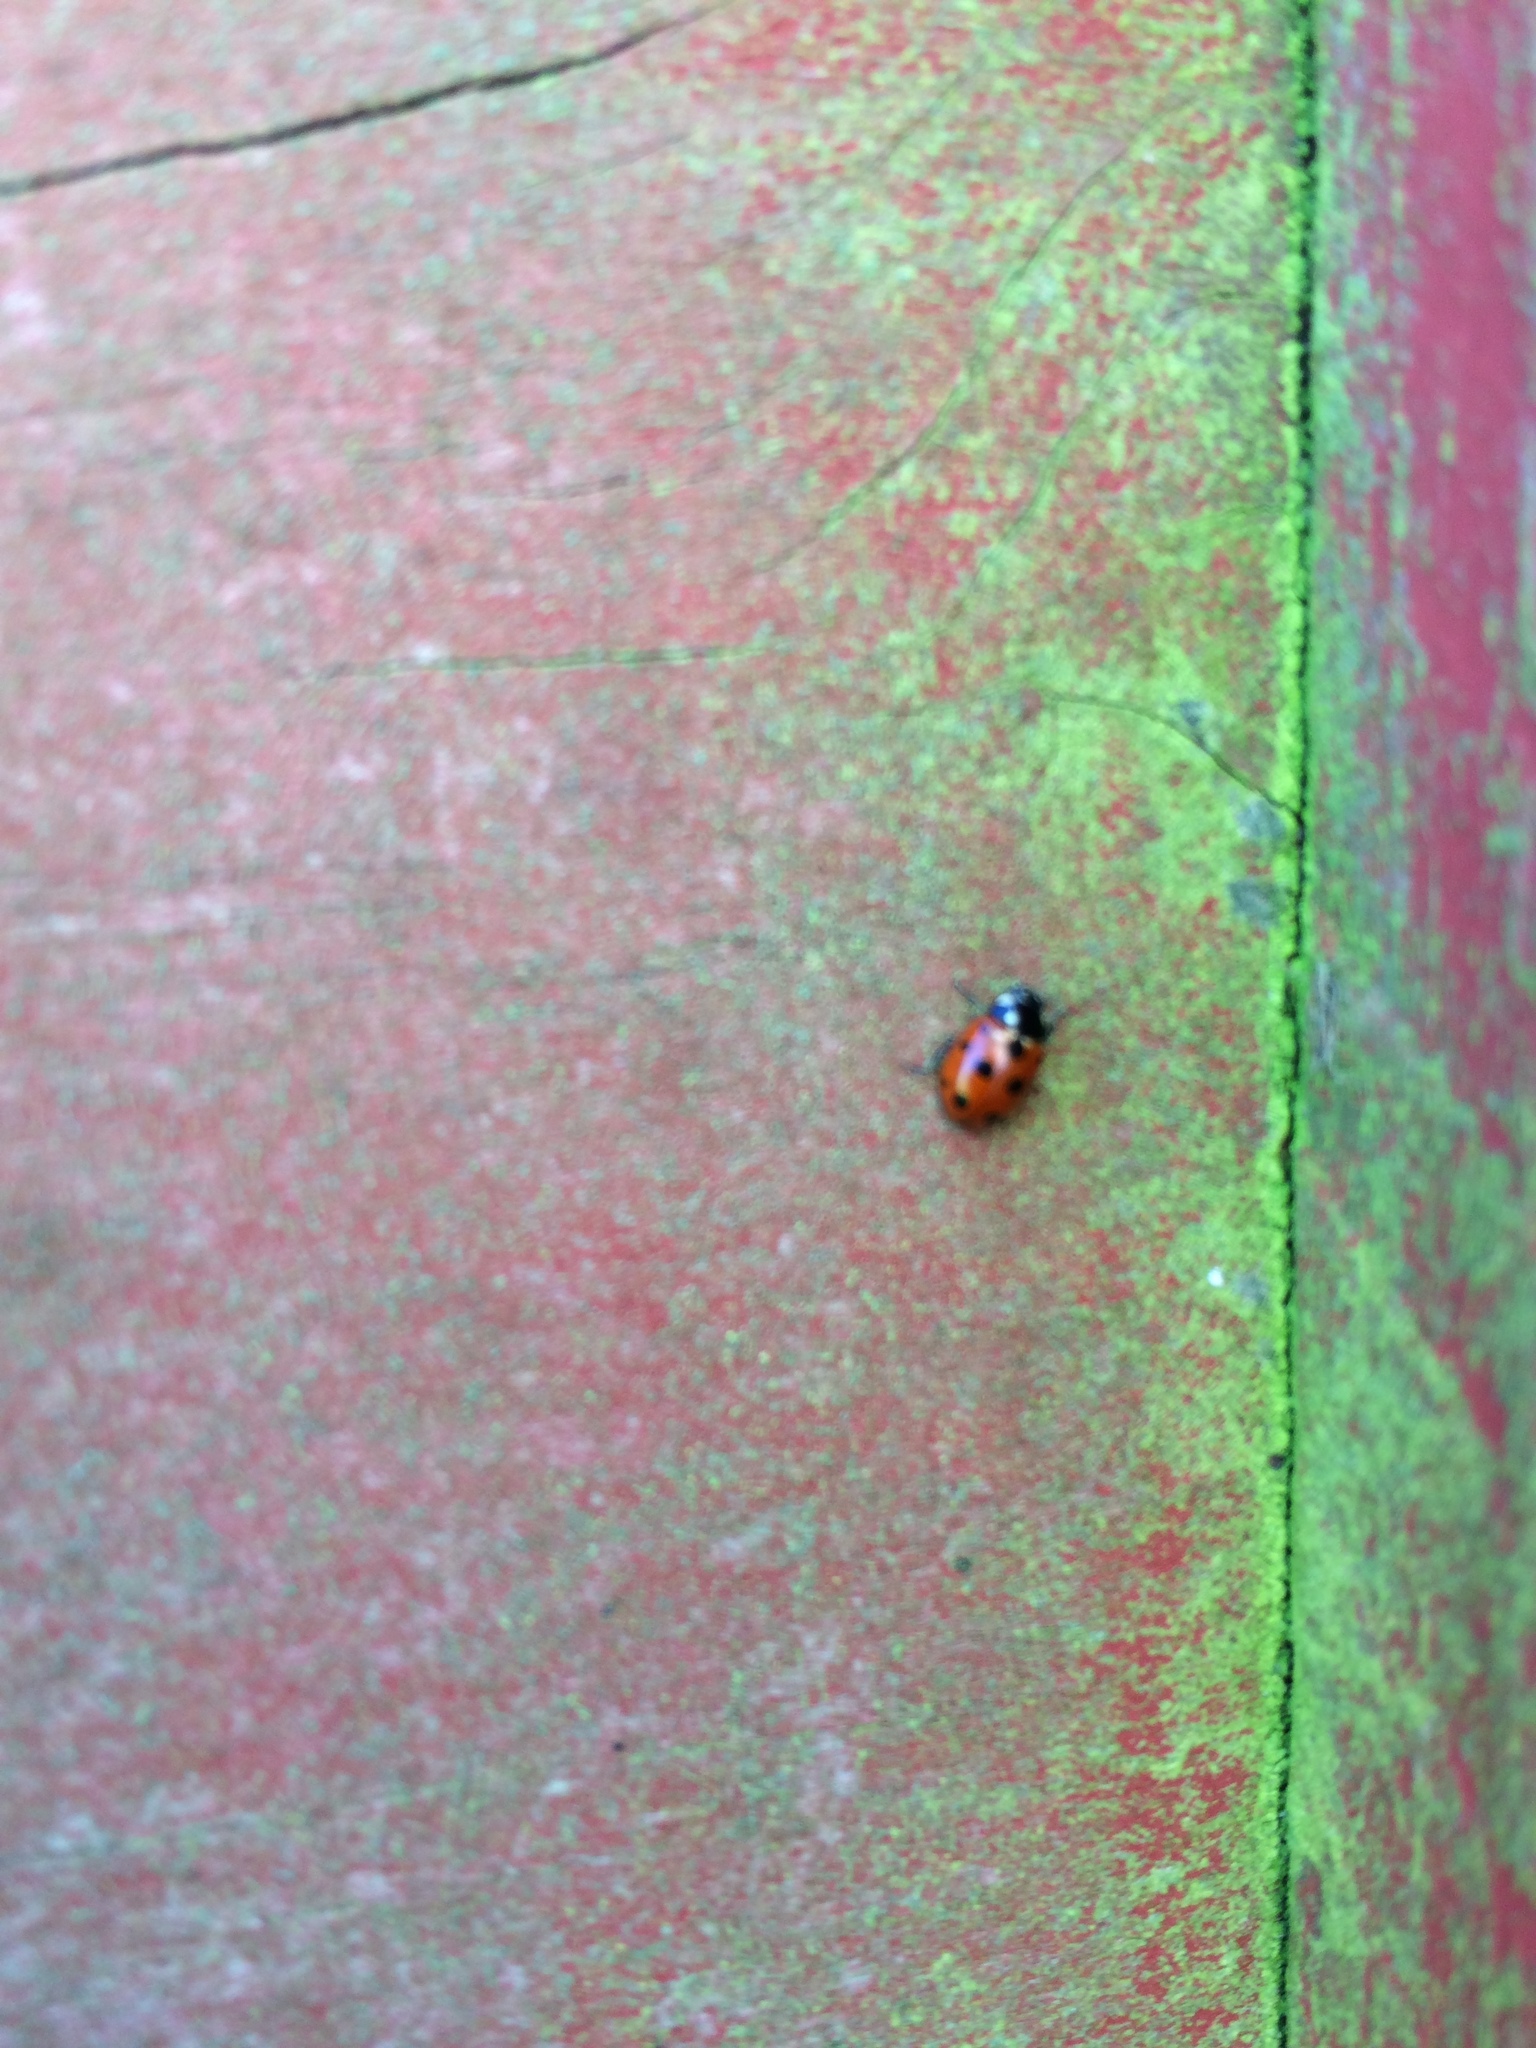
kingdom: Animalia
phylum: Arthropoda
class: Insecta
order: Coleoptera
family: Coccinellidae
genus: Coccinella
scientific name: Coccinella undecimpunctata
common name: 11-spot ladybird
